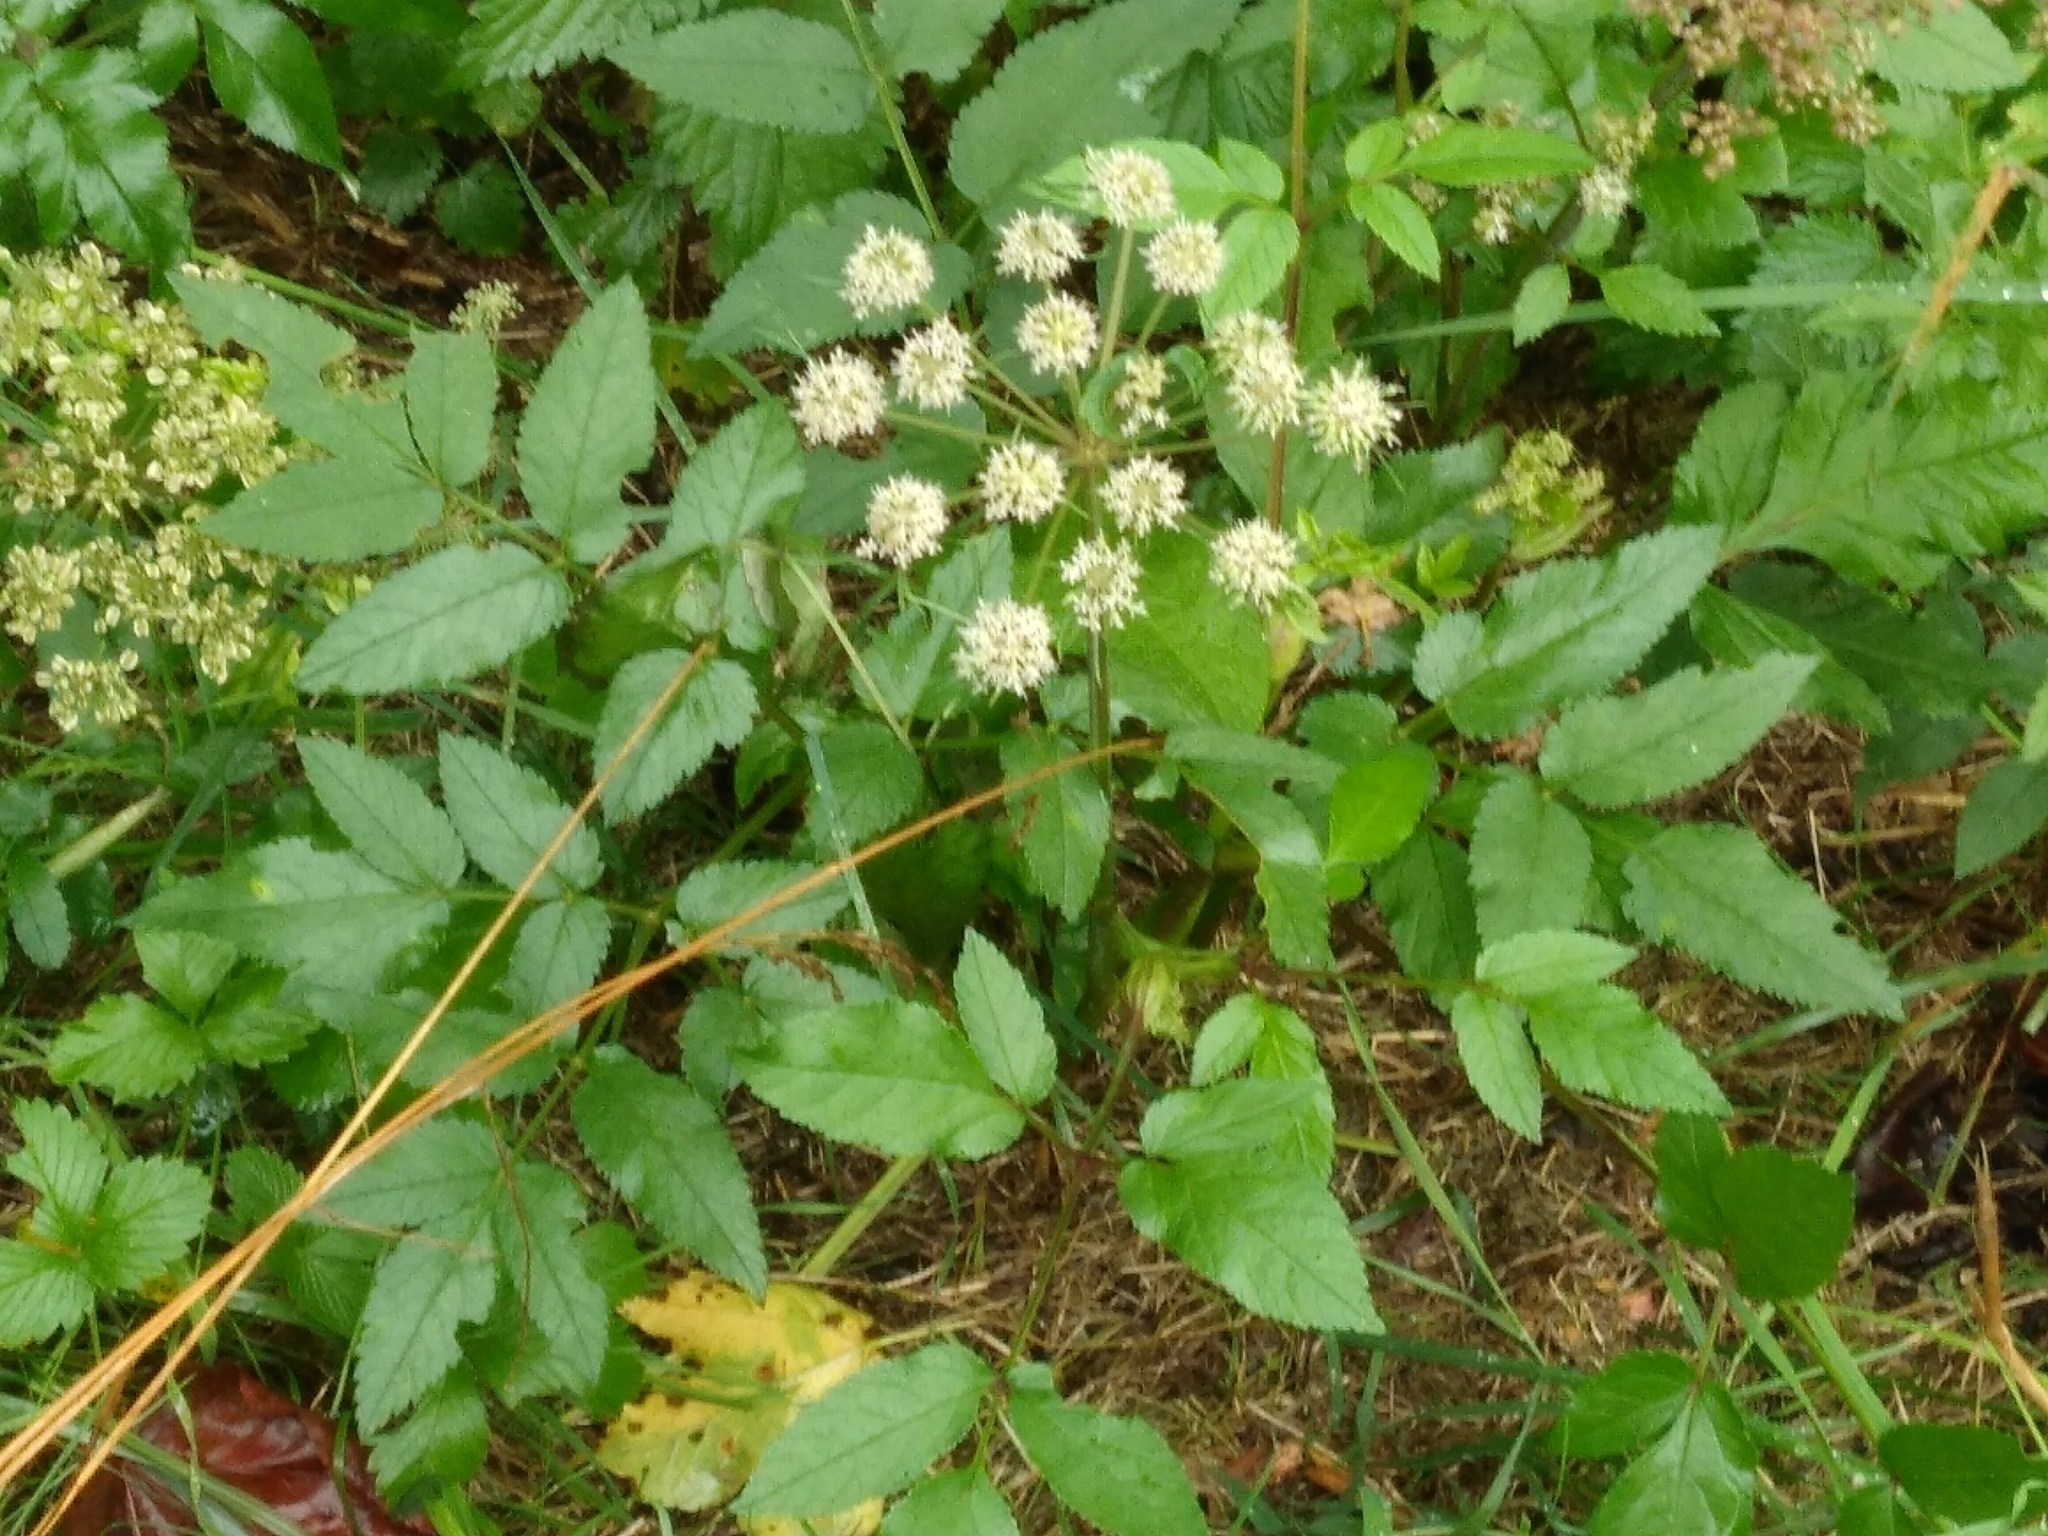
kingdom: Plantae
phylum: Tracheophyta
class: Magnoliopsida
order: Apiales
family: Apiaceae
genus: Angelica
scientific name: Angelica sylvestris
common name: Wild angelica
